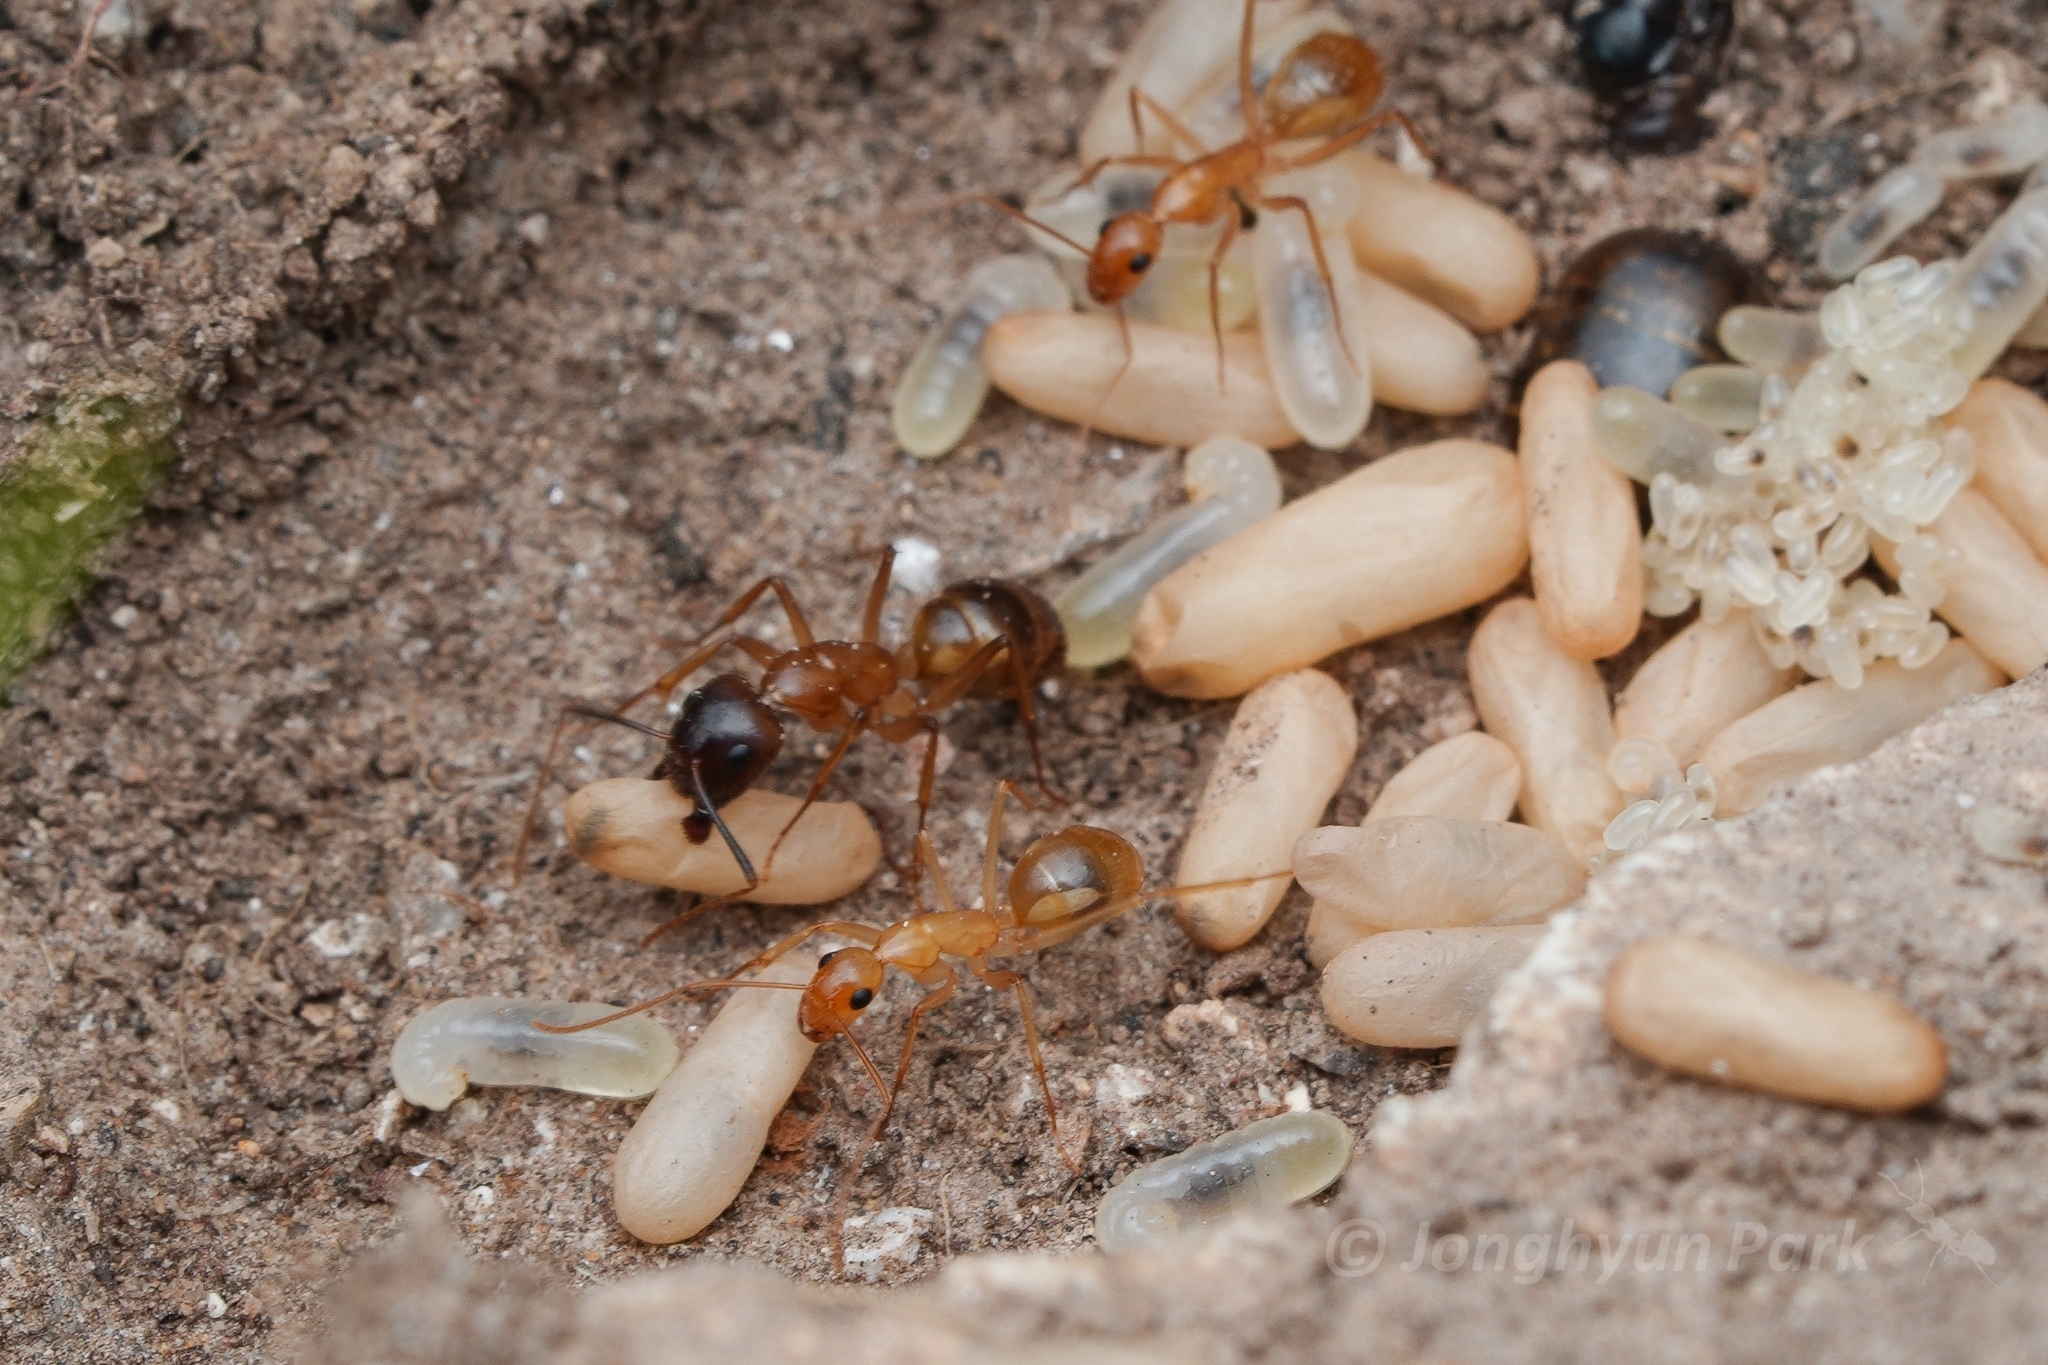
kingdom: Animalia
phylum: Arthropoda
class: Insecta
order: Hymenoptera
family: Formicidae
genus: Camponotus
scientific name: Camponotus pudorosus
